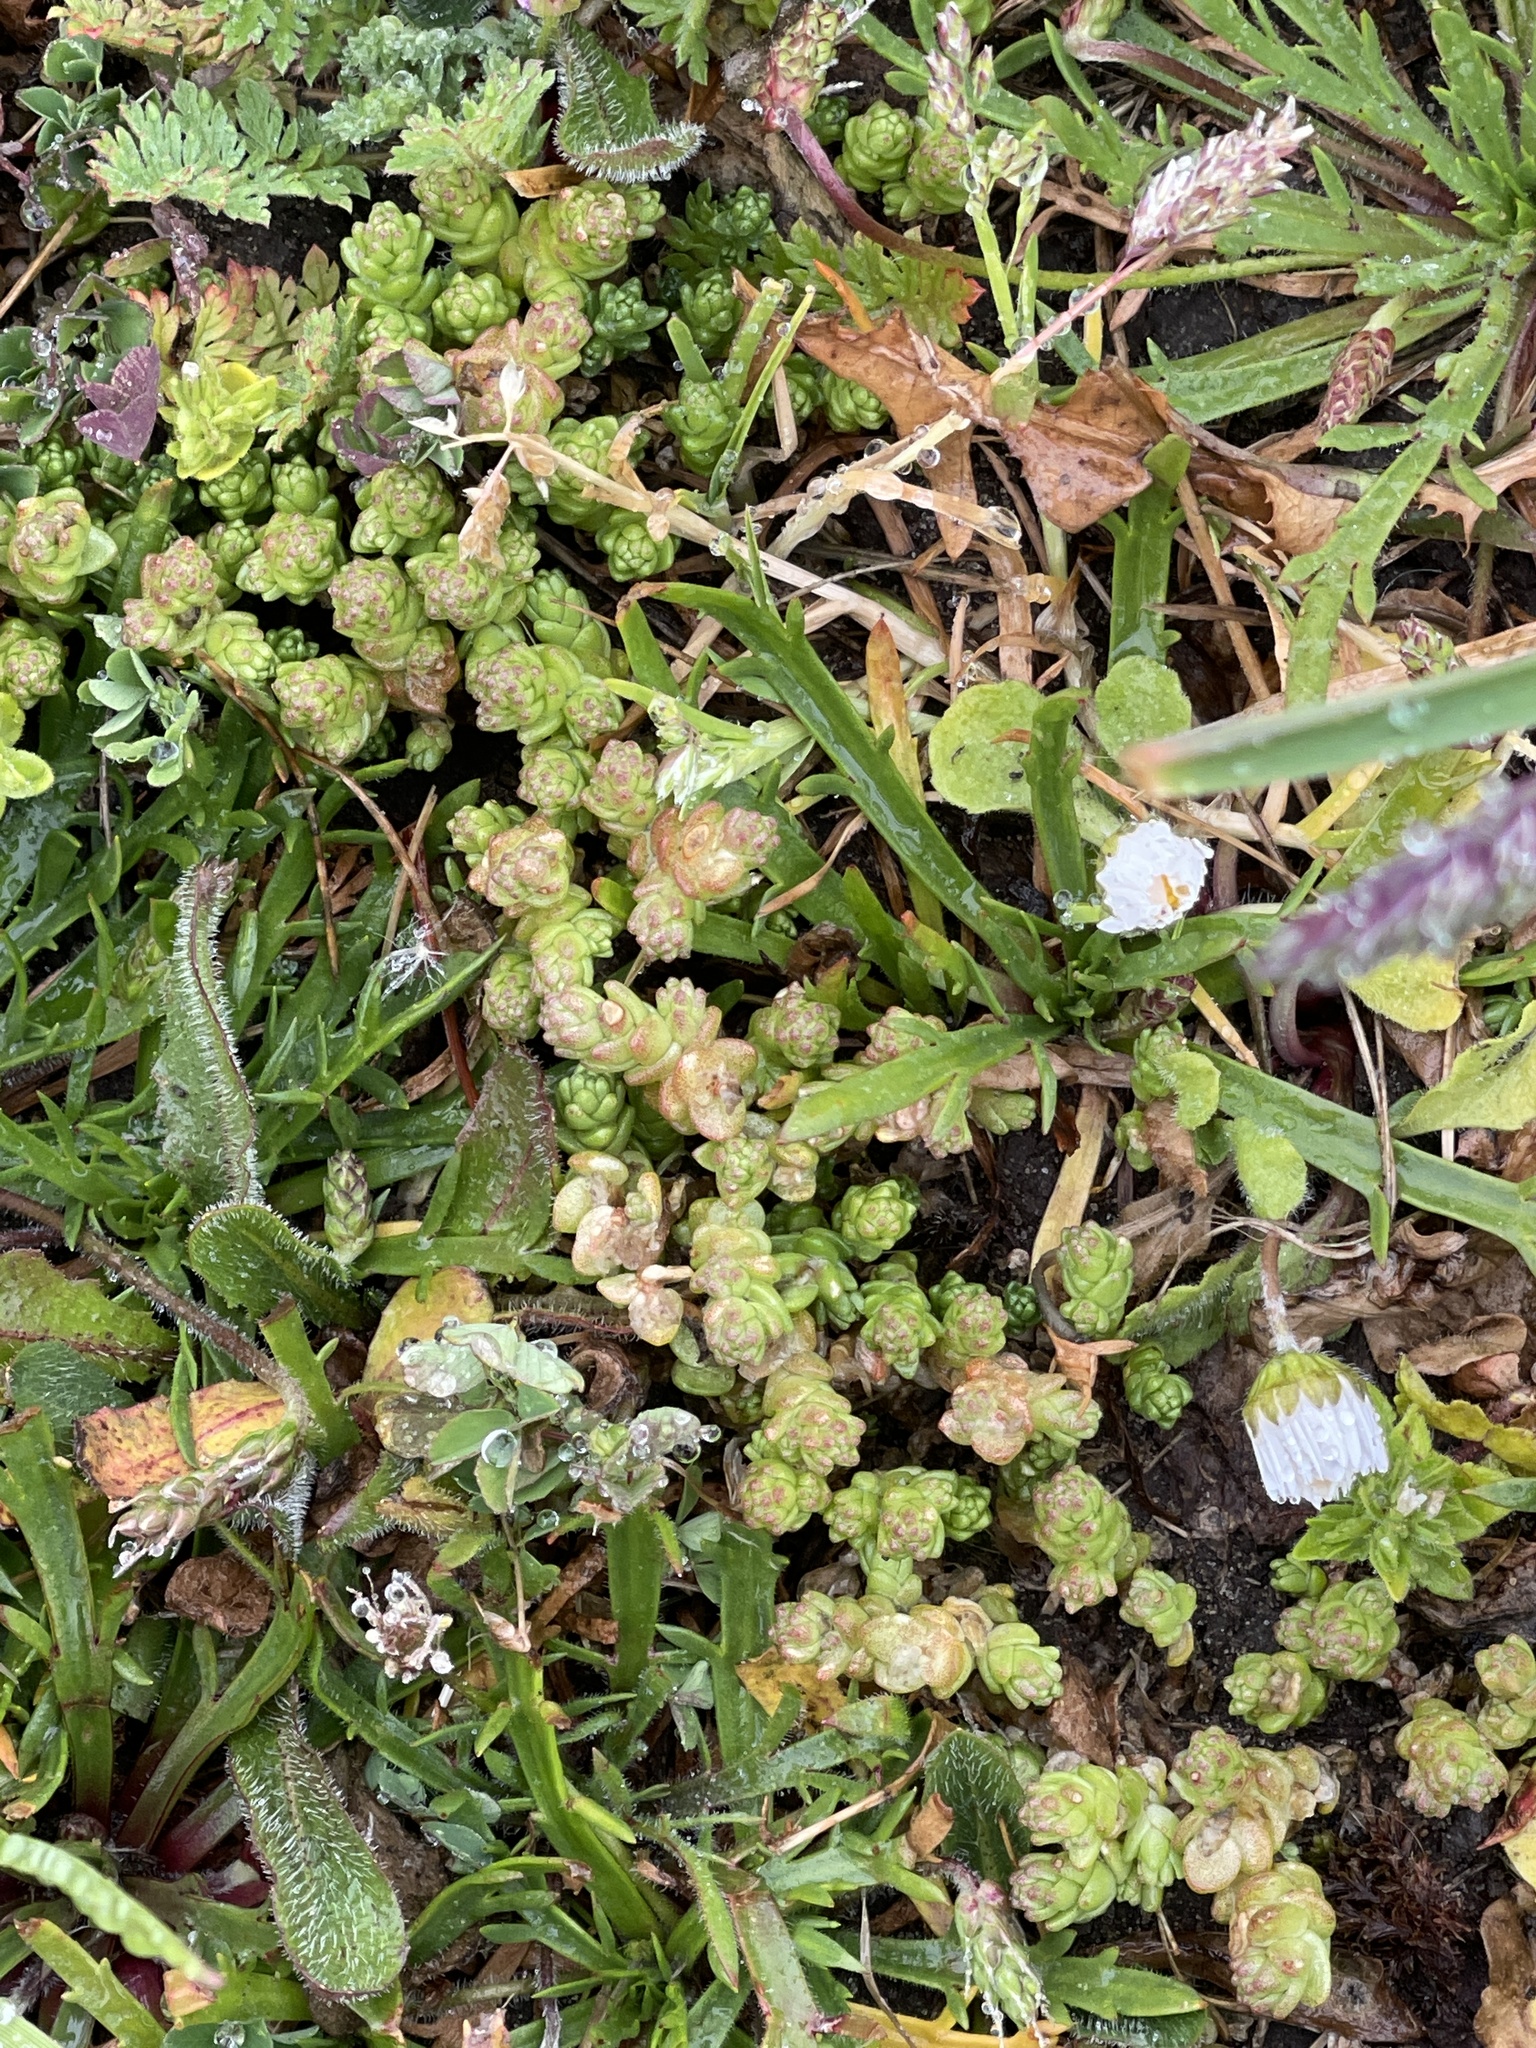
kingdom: Plantae
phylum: Tracheophyta
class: Magnoliopsida
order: Saxifragales
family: Crassulaceae
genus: Sedum
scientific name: Sedum acre
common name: Biting stonecrop
